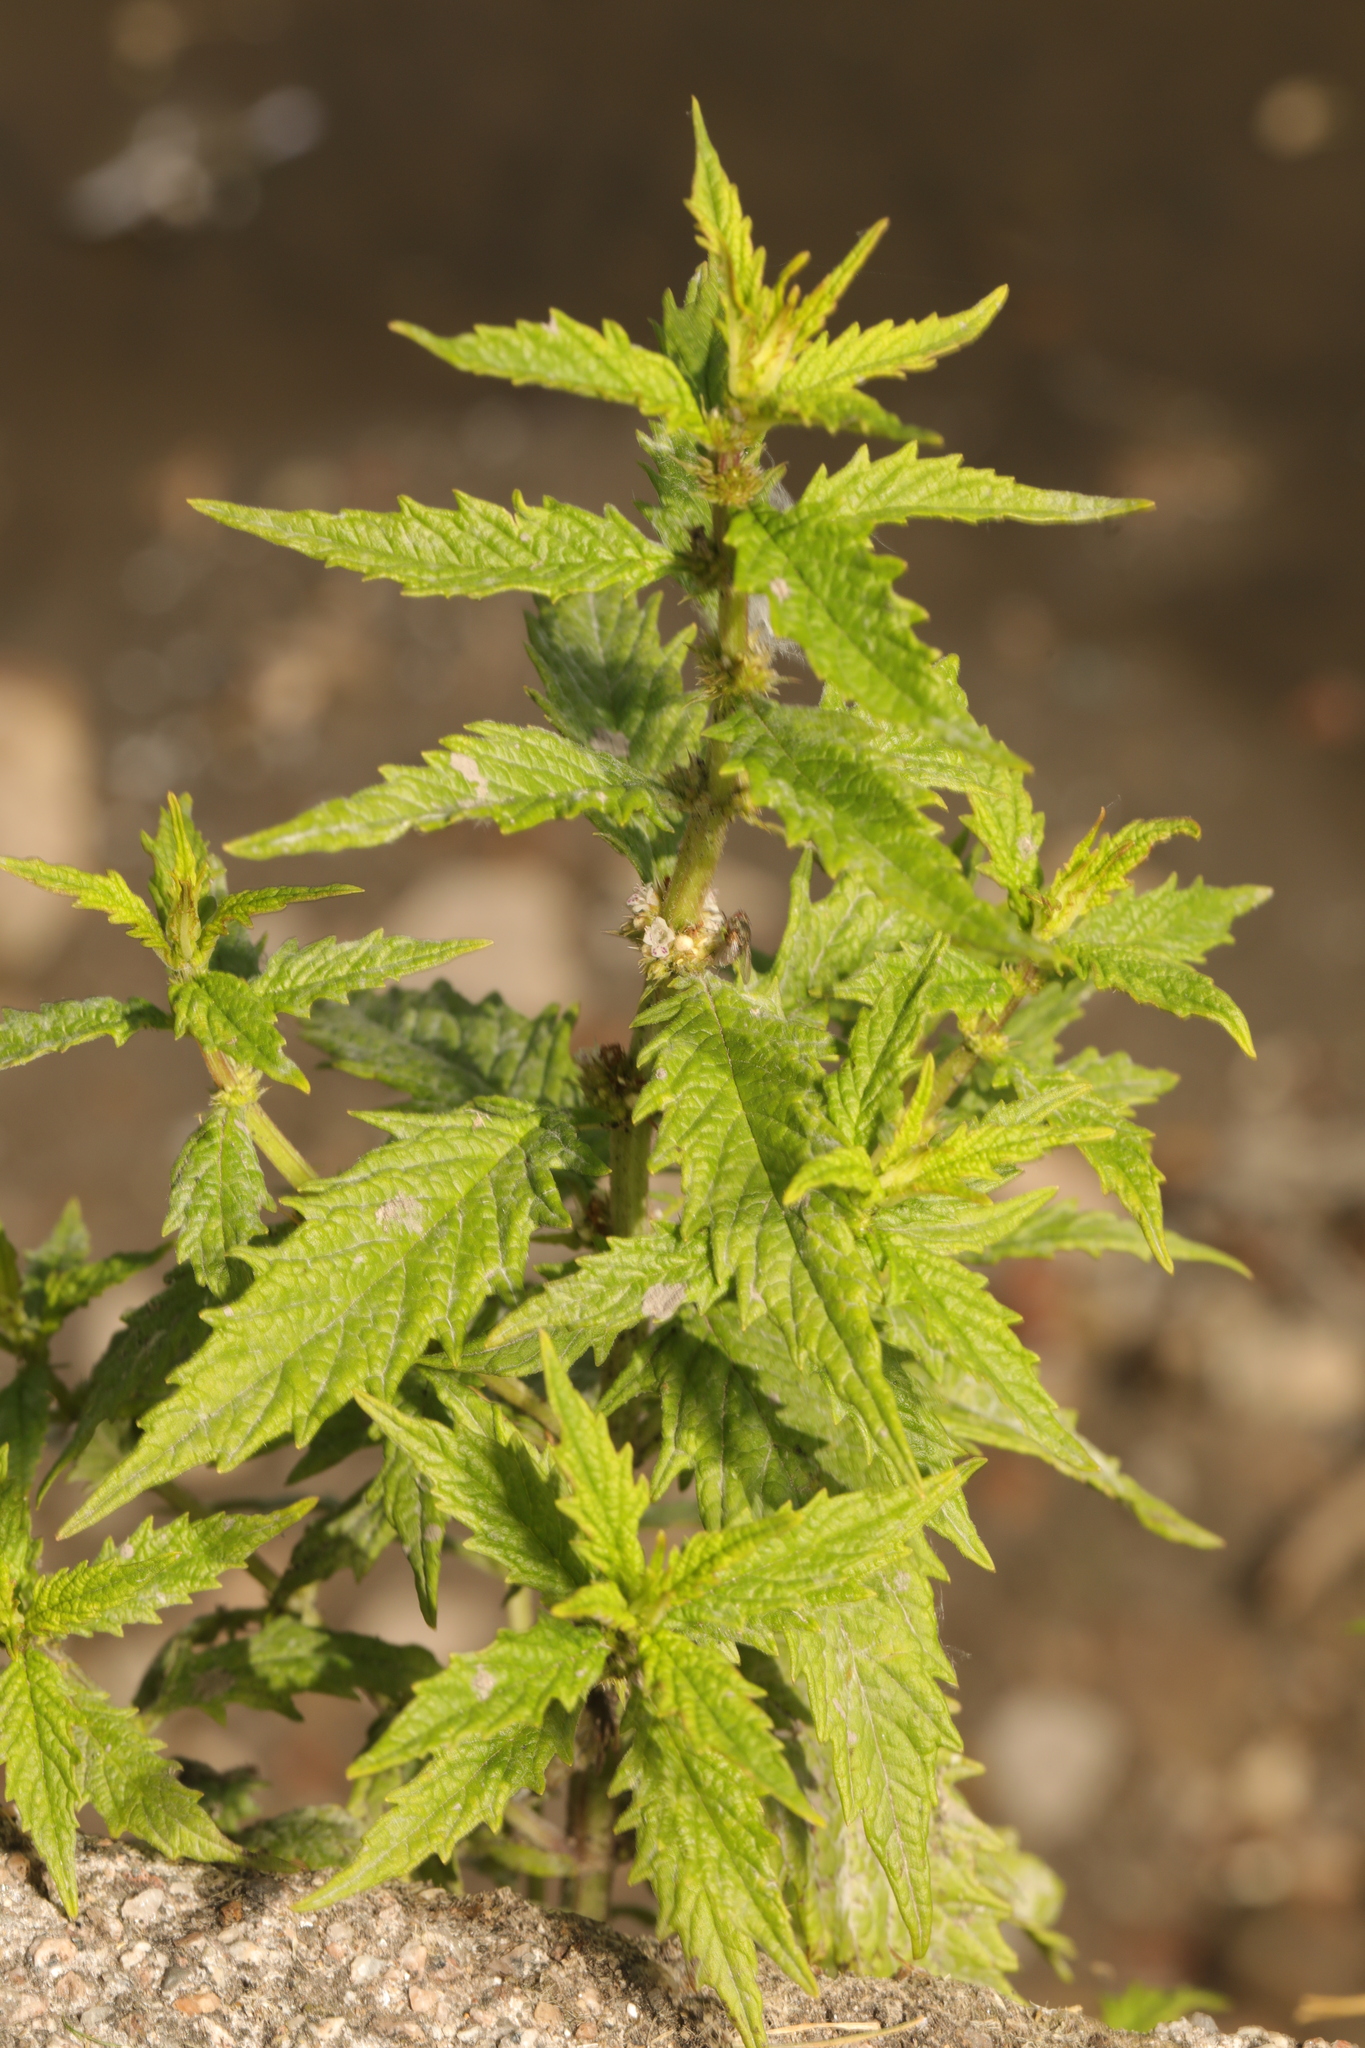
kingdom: Plantae
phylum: Tracheophyta
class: Magnoliopsida
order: Lamiales
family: Lamiaceae
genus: Lycopus
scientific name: Lycopus europaeus
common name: European bugleweed
